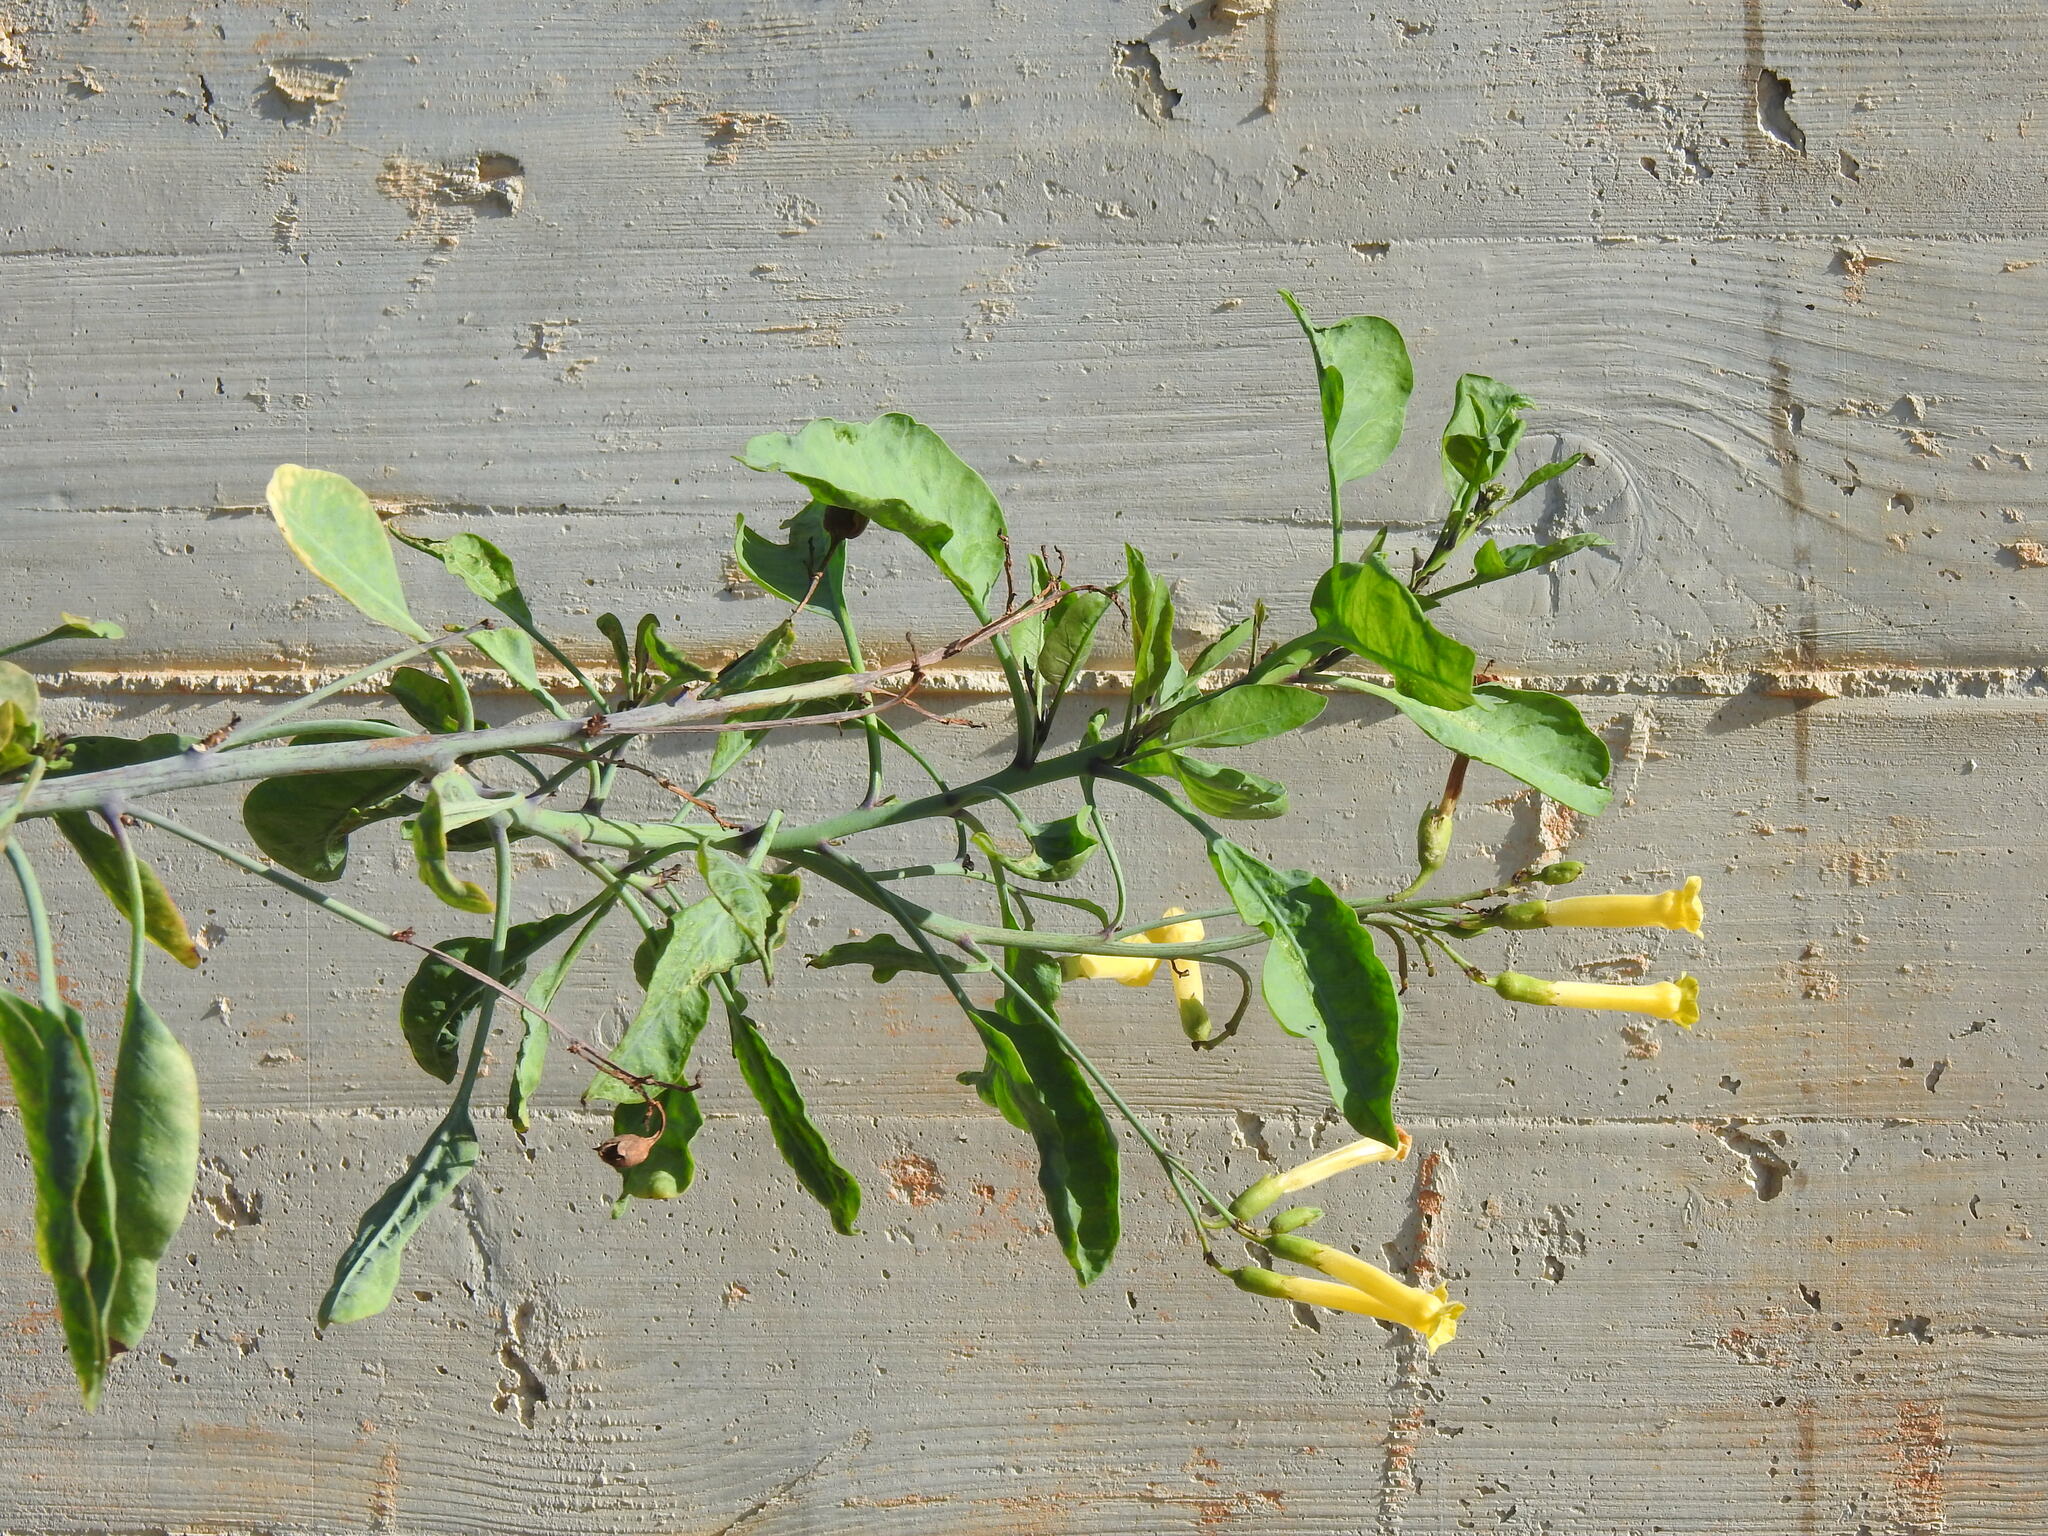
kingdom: Plantae
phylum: Tracheophyta
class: Magnoliopsida
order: Solanales
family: Solanaceae
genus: Nicotiana
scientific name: Nicotiana glauca
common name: Tree tobacco
